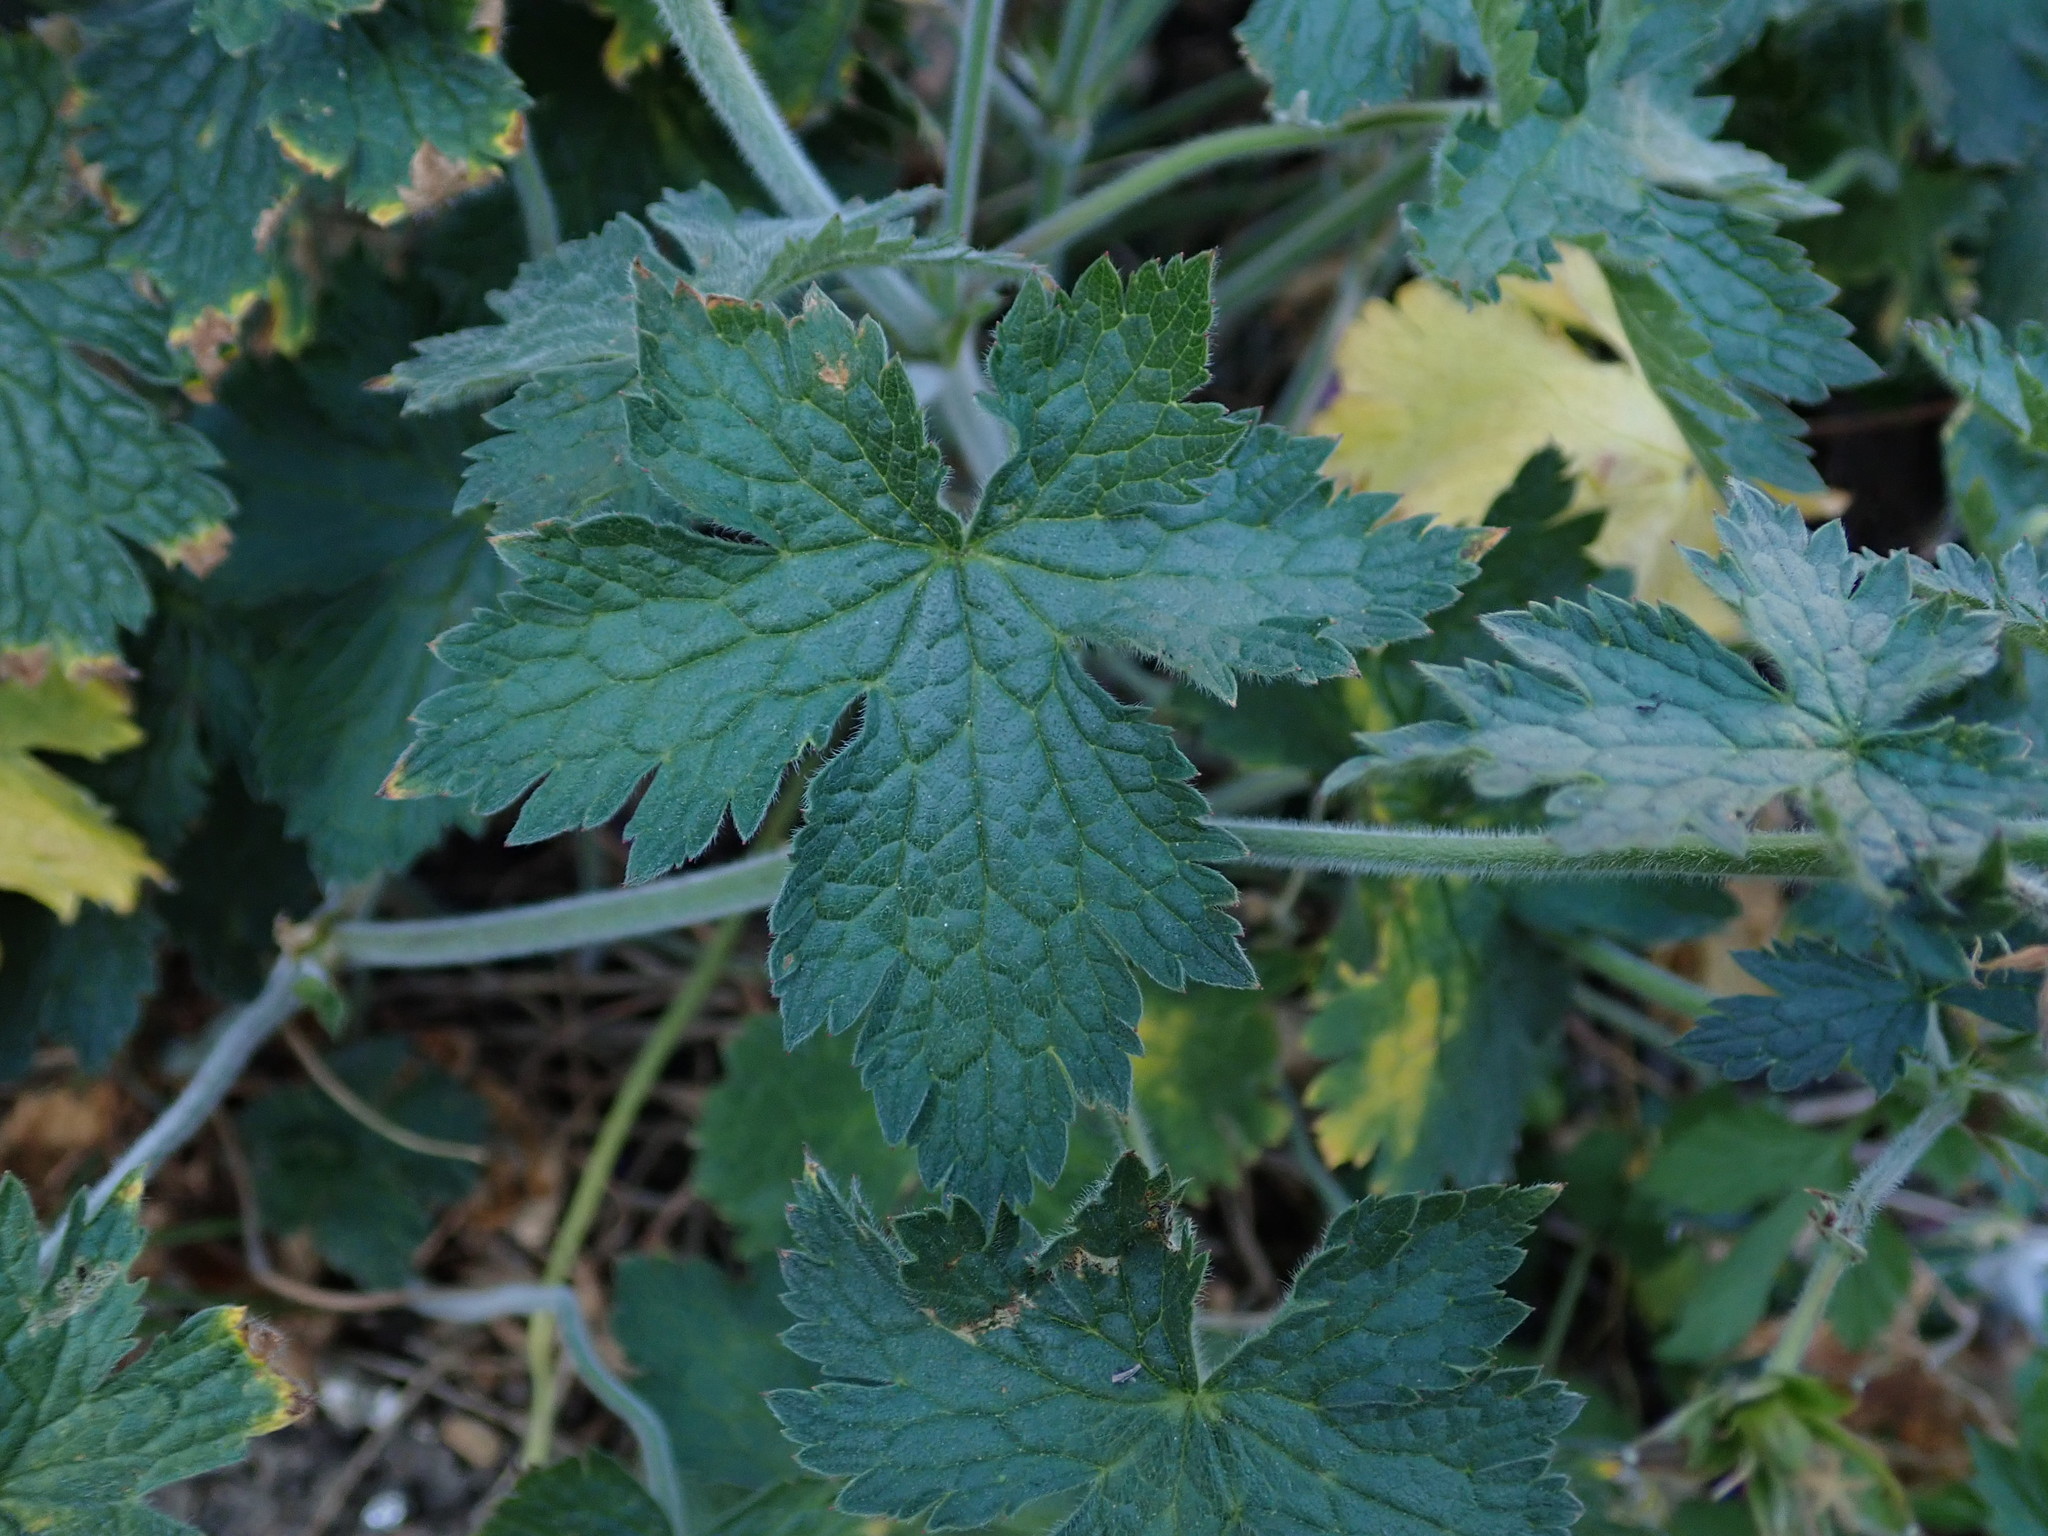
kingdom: Plantae
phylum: Tracheophyta
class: Magnoliopsida
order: Geraniales
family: Geraniaceae
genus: Geranium
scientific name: Geranium oxonianum
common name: Druce's crane's-bill
